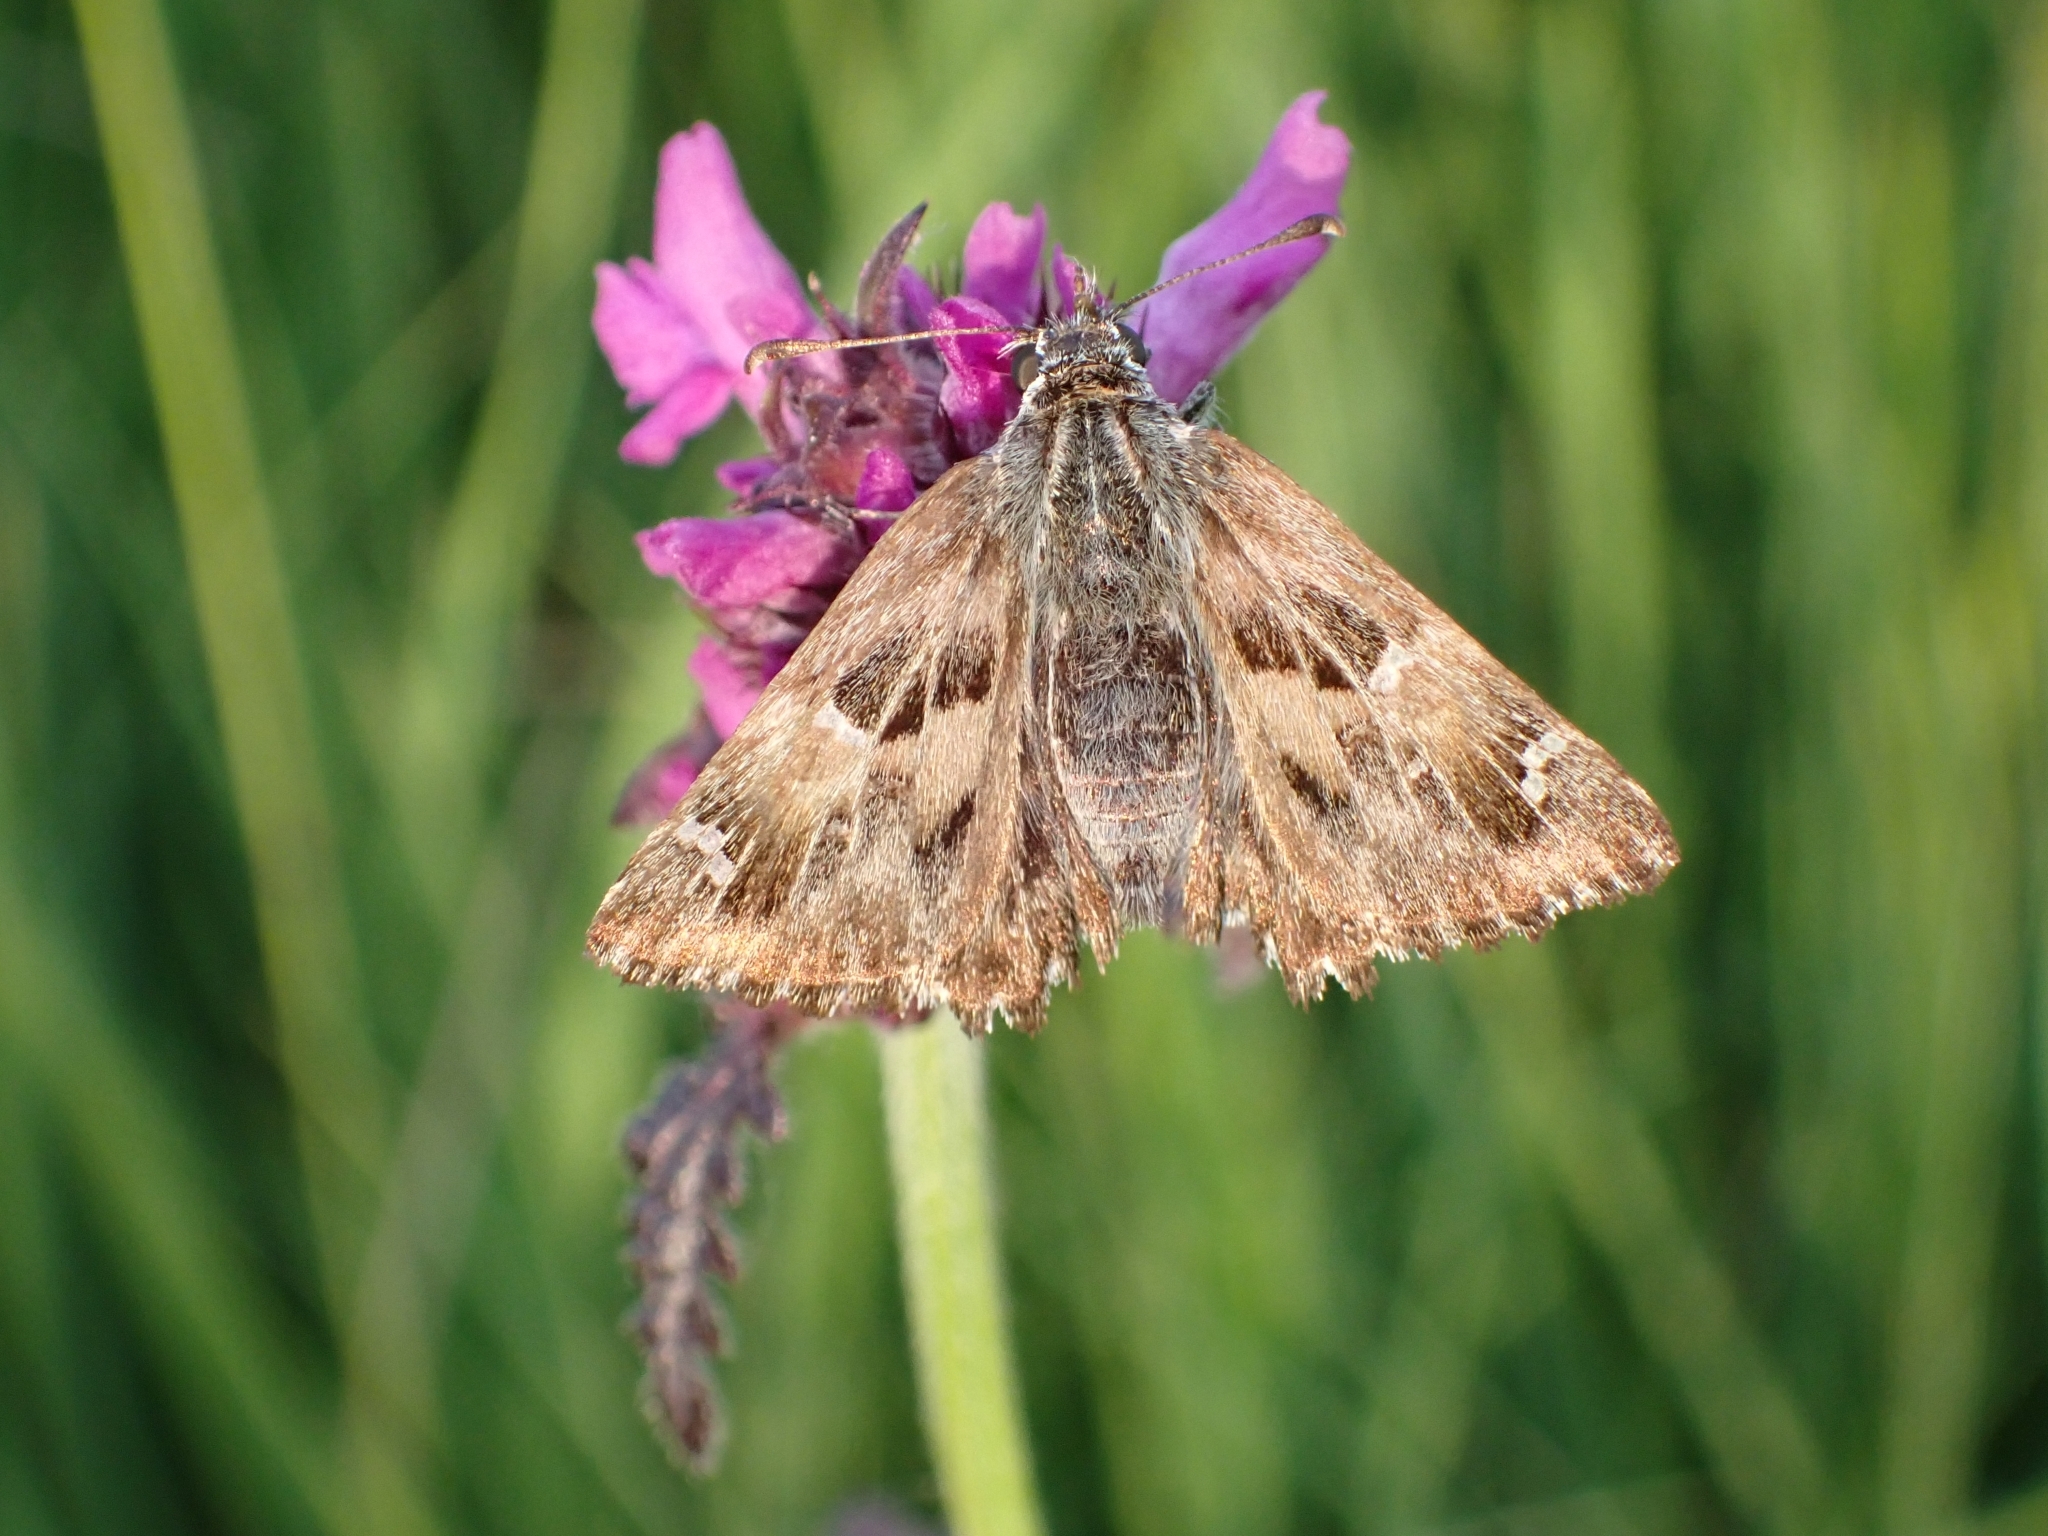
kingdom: Animalia
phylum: Arthropoda
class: Insecta
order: Lepidoptera
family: Hesperiidae
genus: Carcharodus
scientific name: Carcharodus alceae
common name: Mallow skipper
